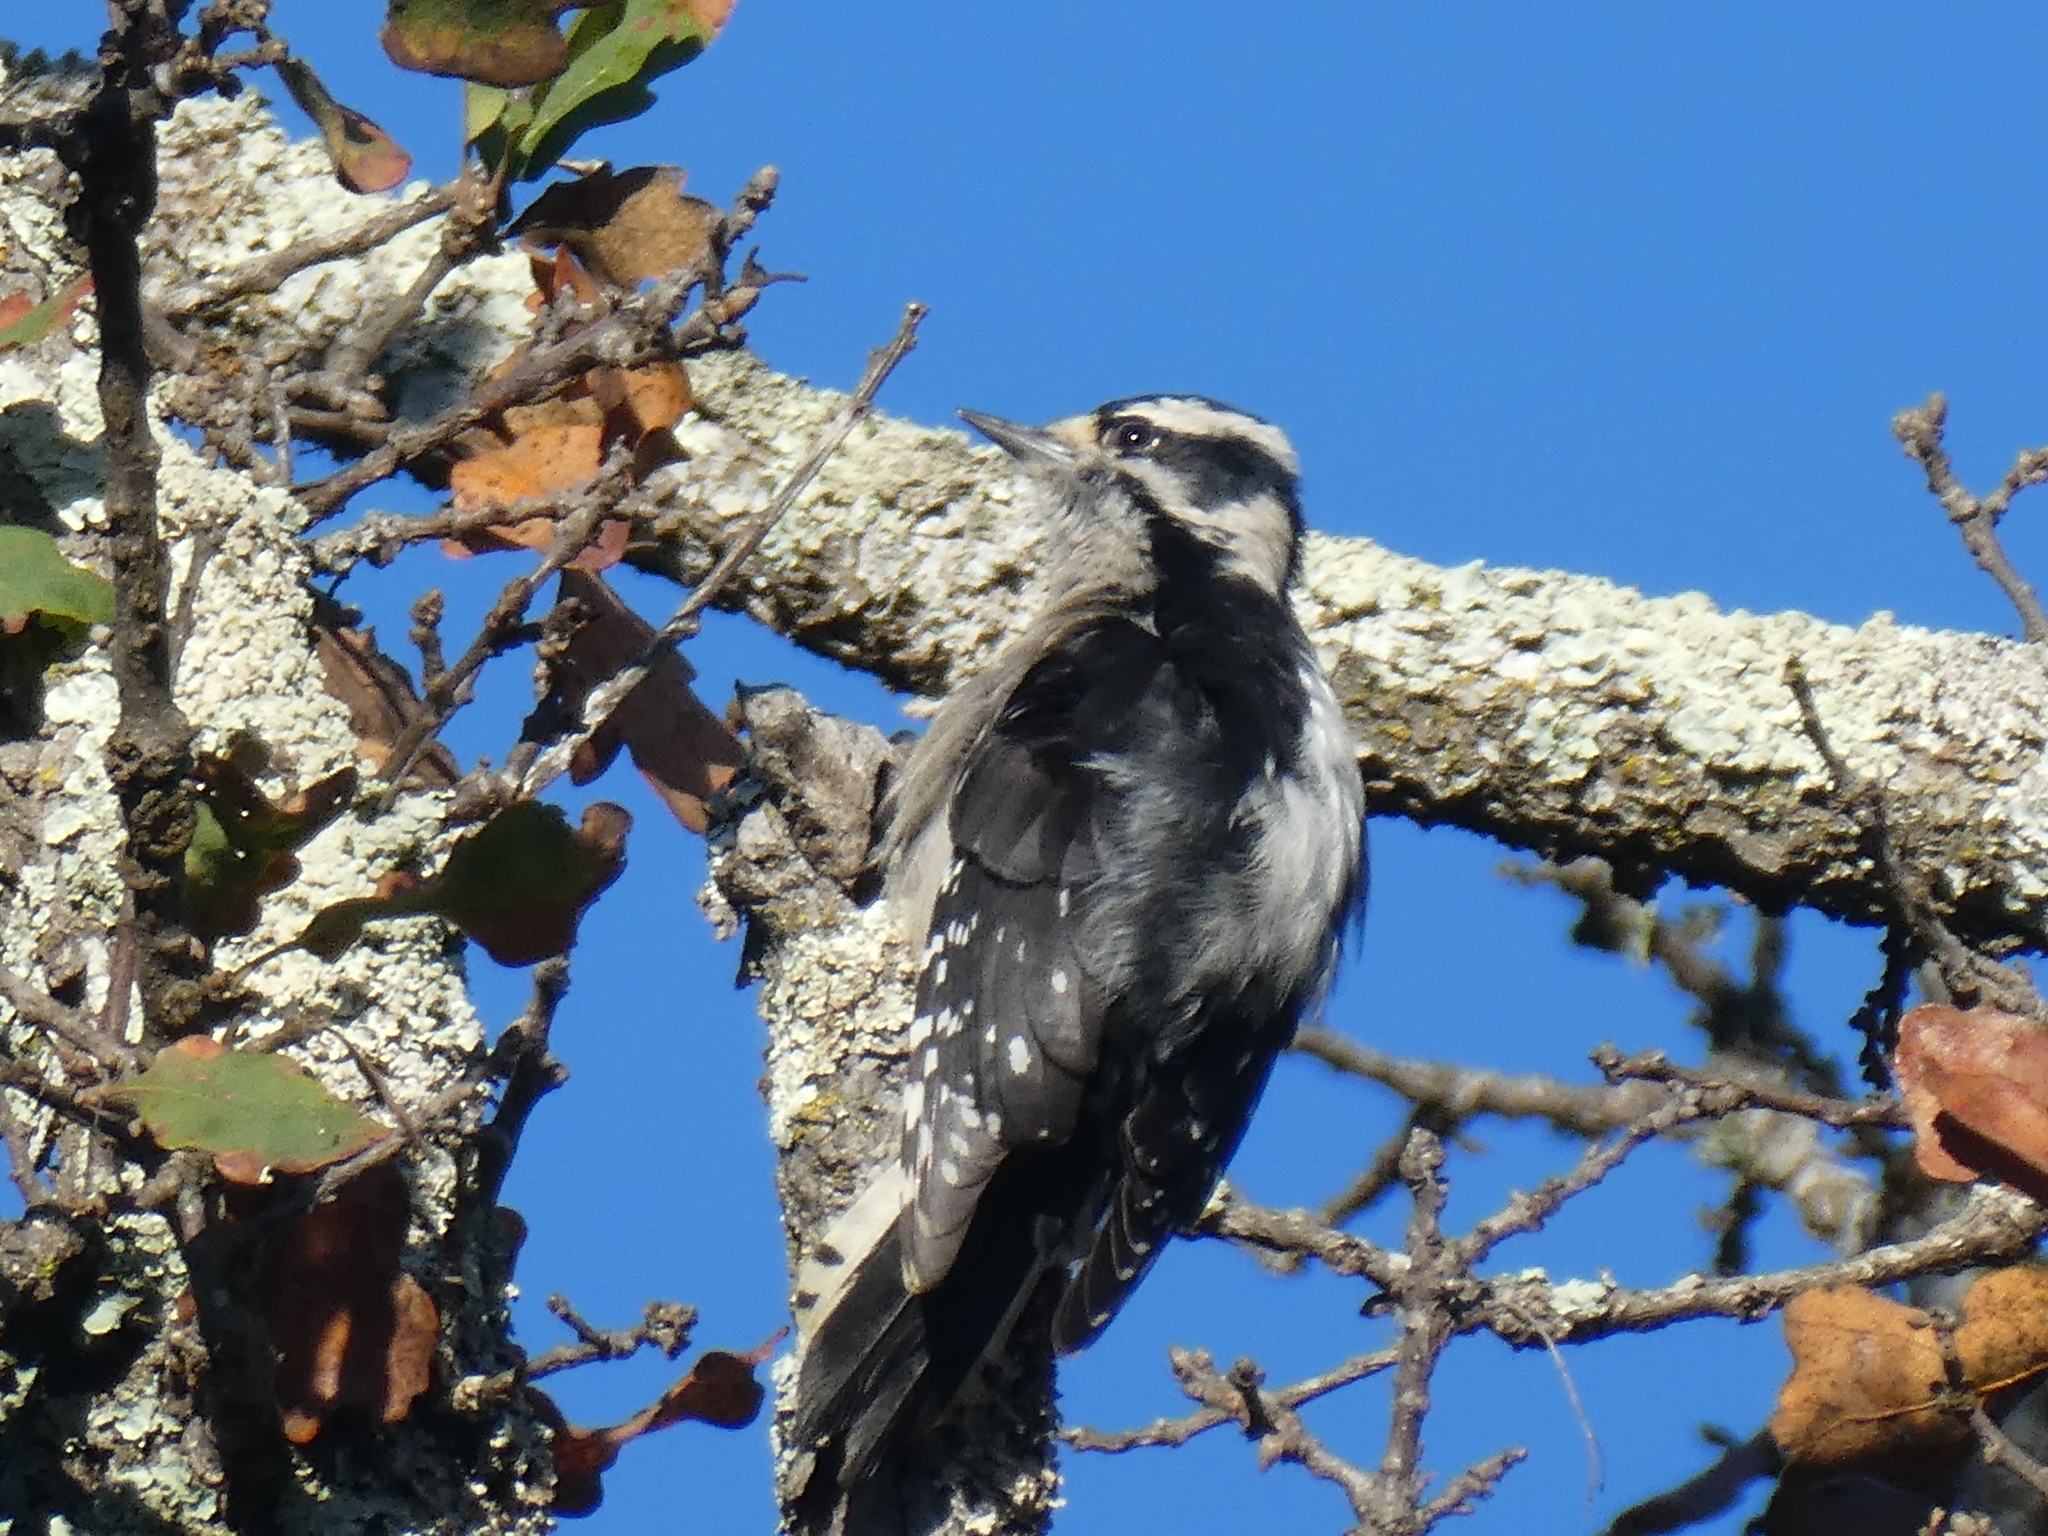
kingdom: Animalia
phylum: Chordata
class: Aves
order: Piciformes
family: Picidae
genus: Dryobates
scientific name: Dryobates pubescens
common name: Downy woodpecker
